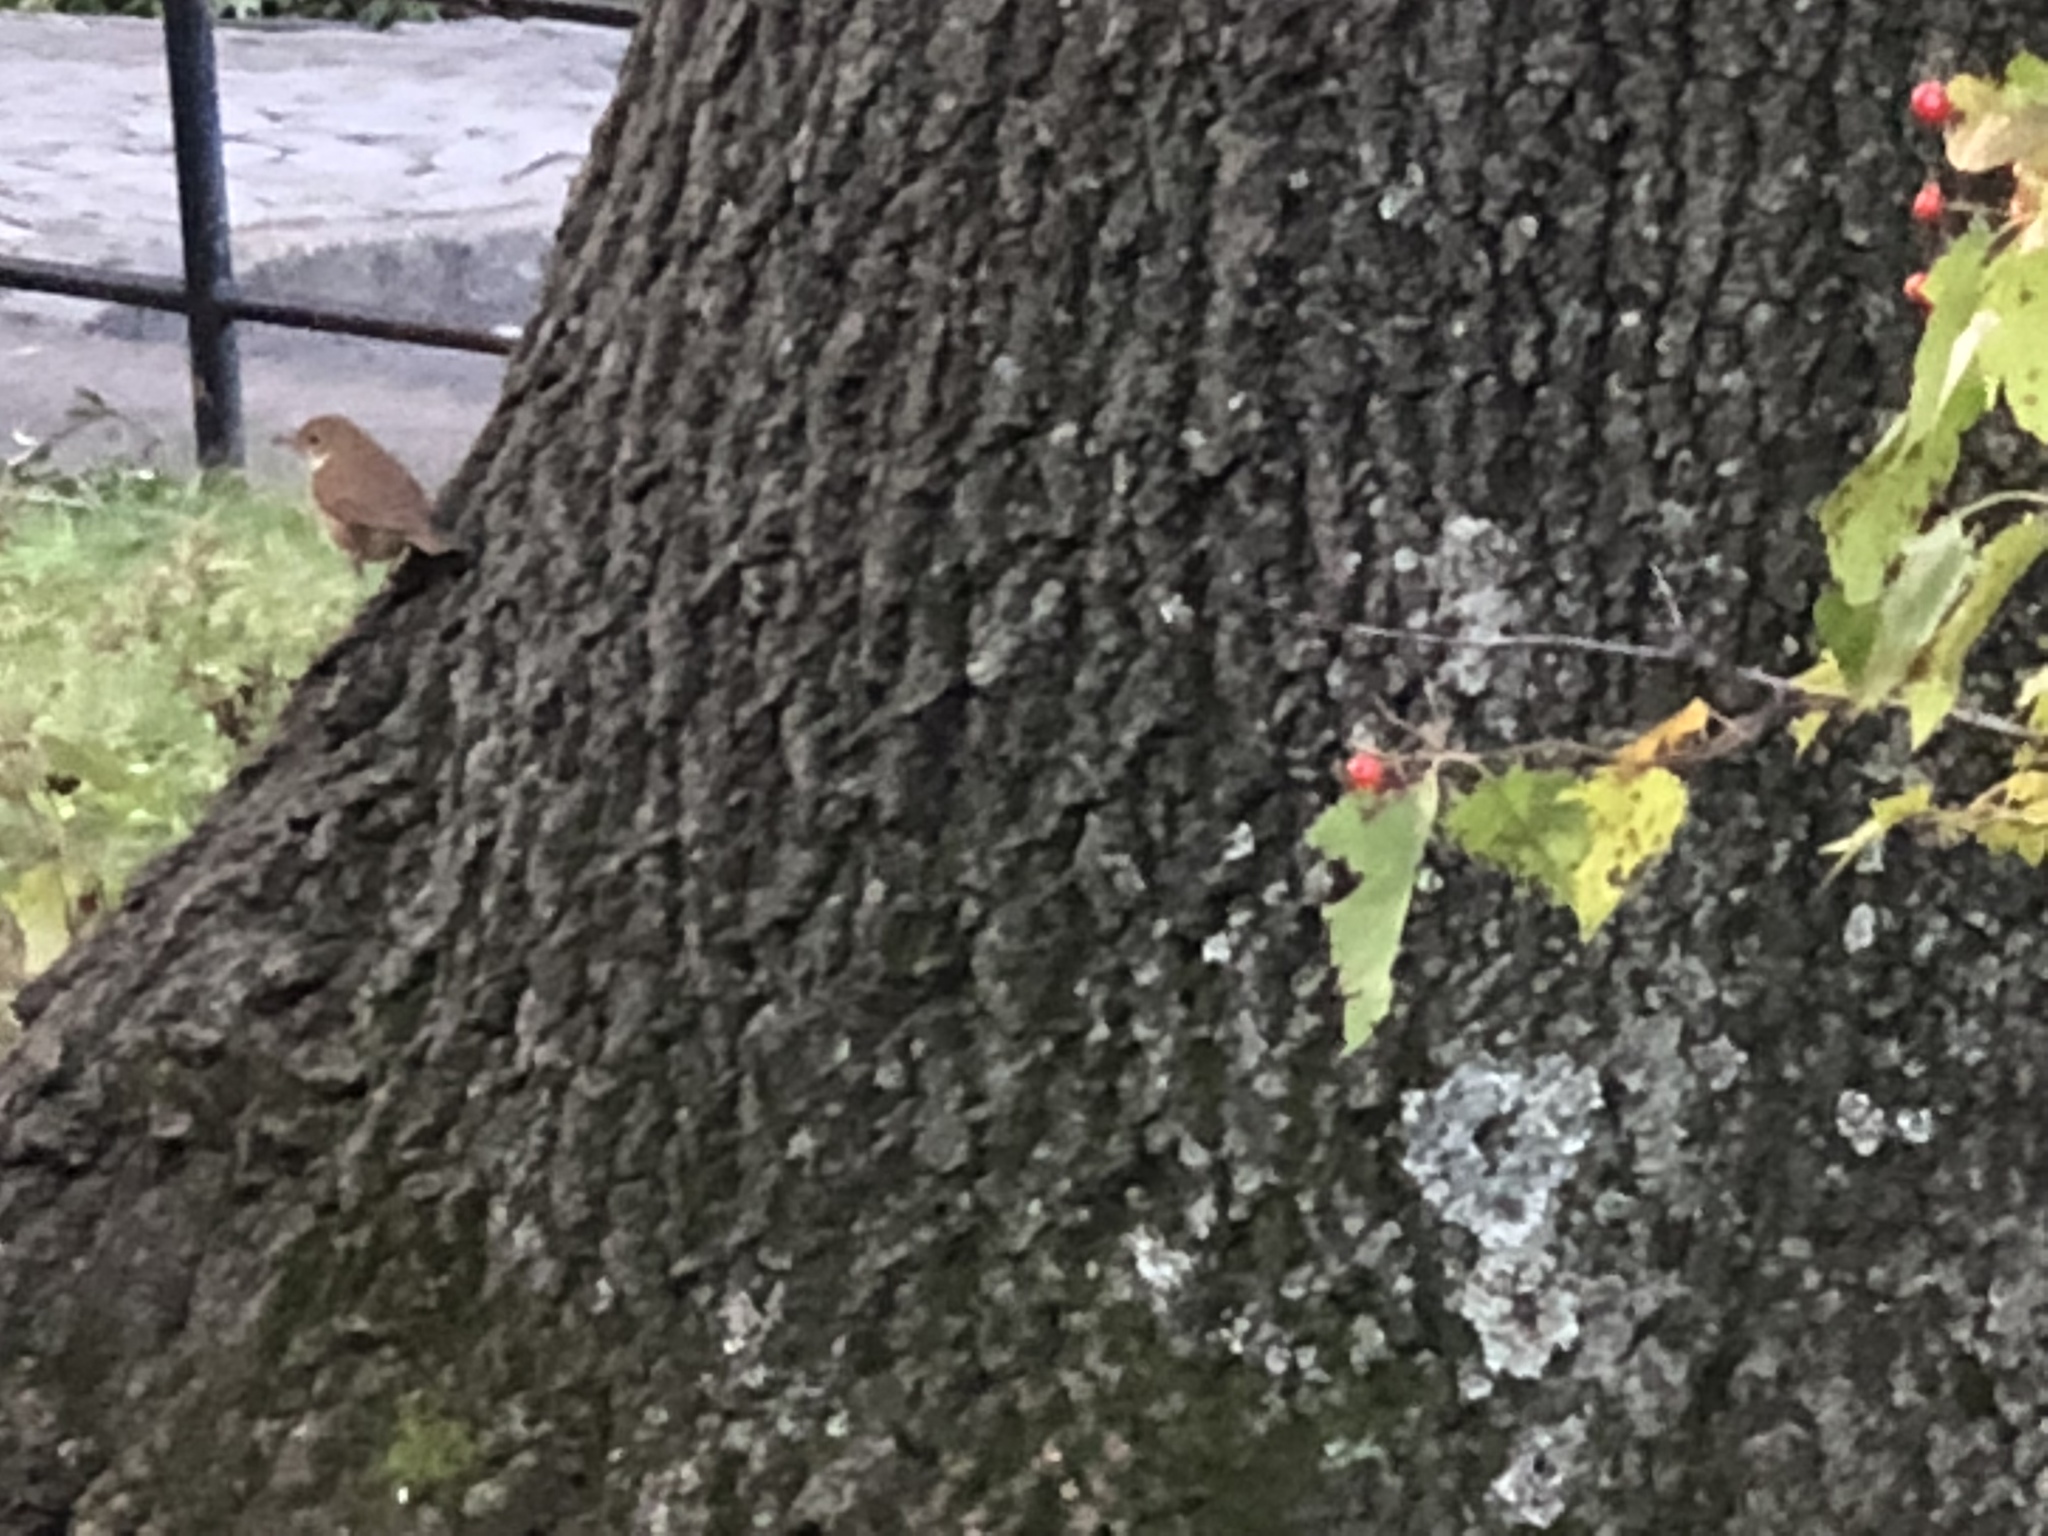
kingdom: Animalia
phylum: Chordata
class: Aves
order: Passeriformes
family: Turdidae
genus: Catharus
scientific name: Catharus guttatus
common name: Hermit thrush
